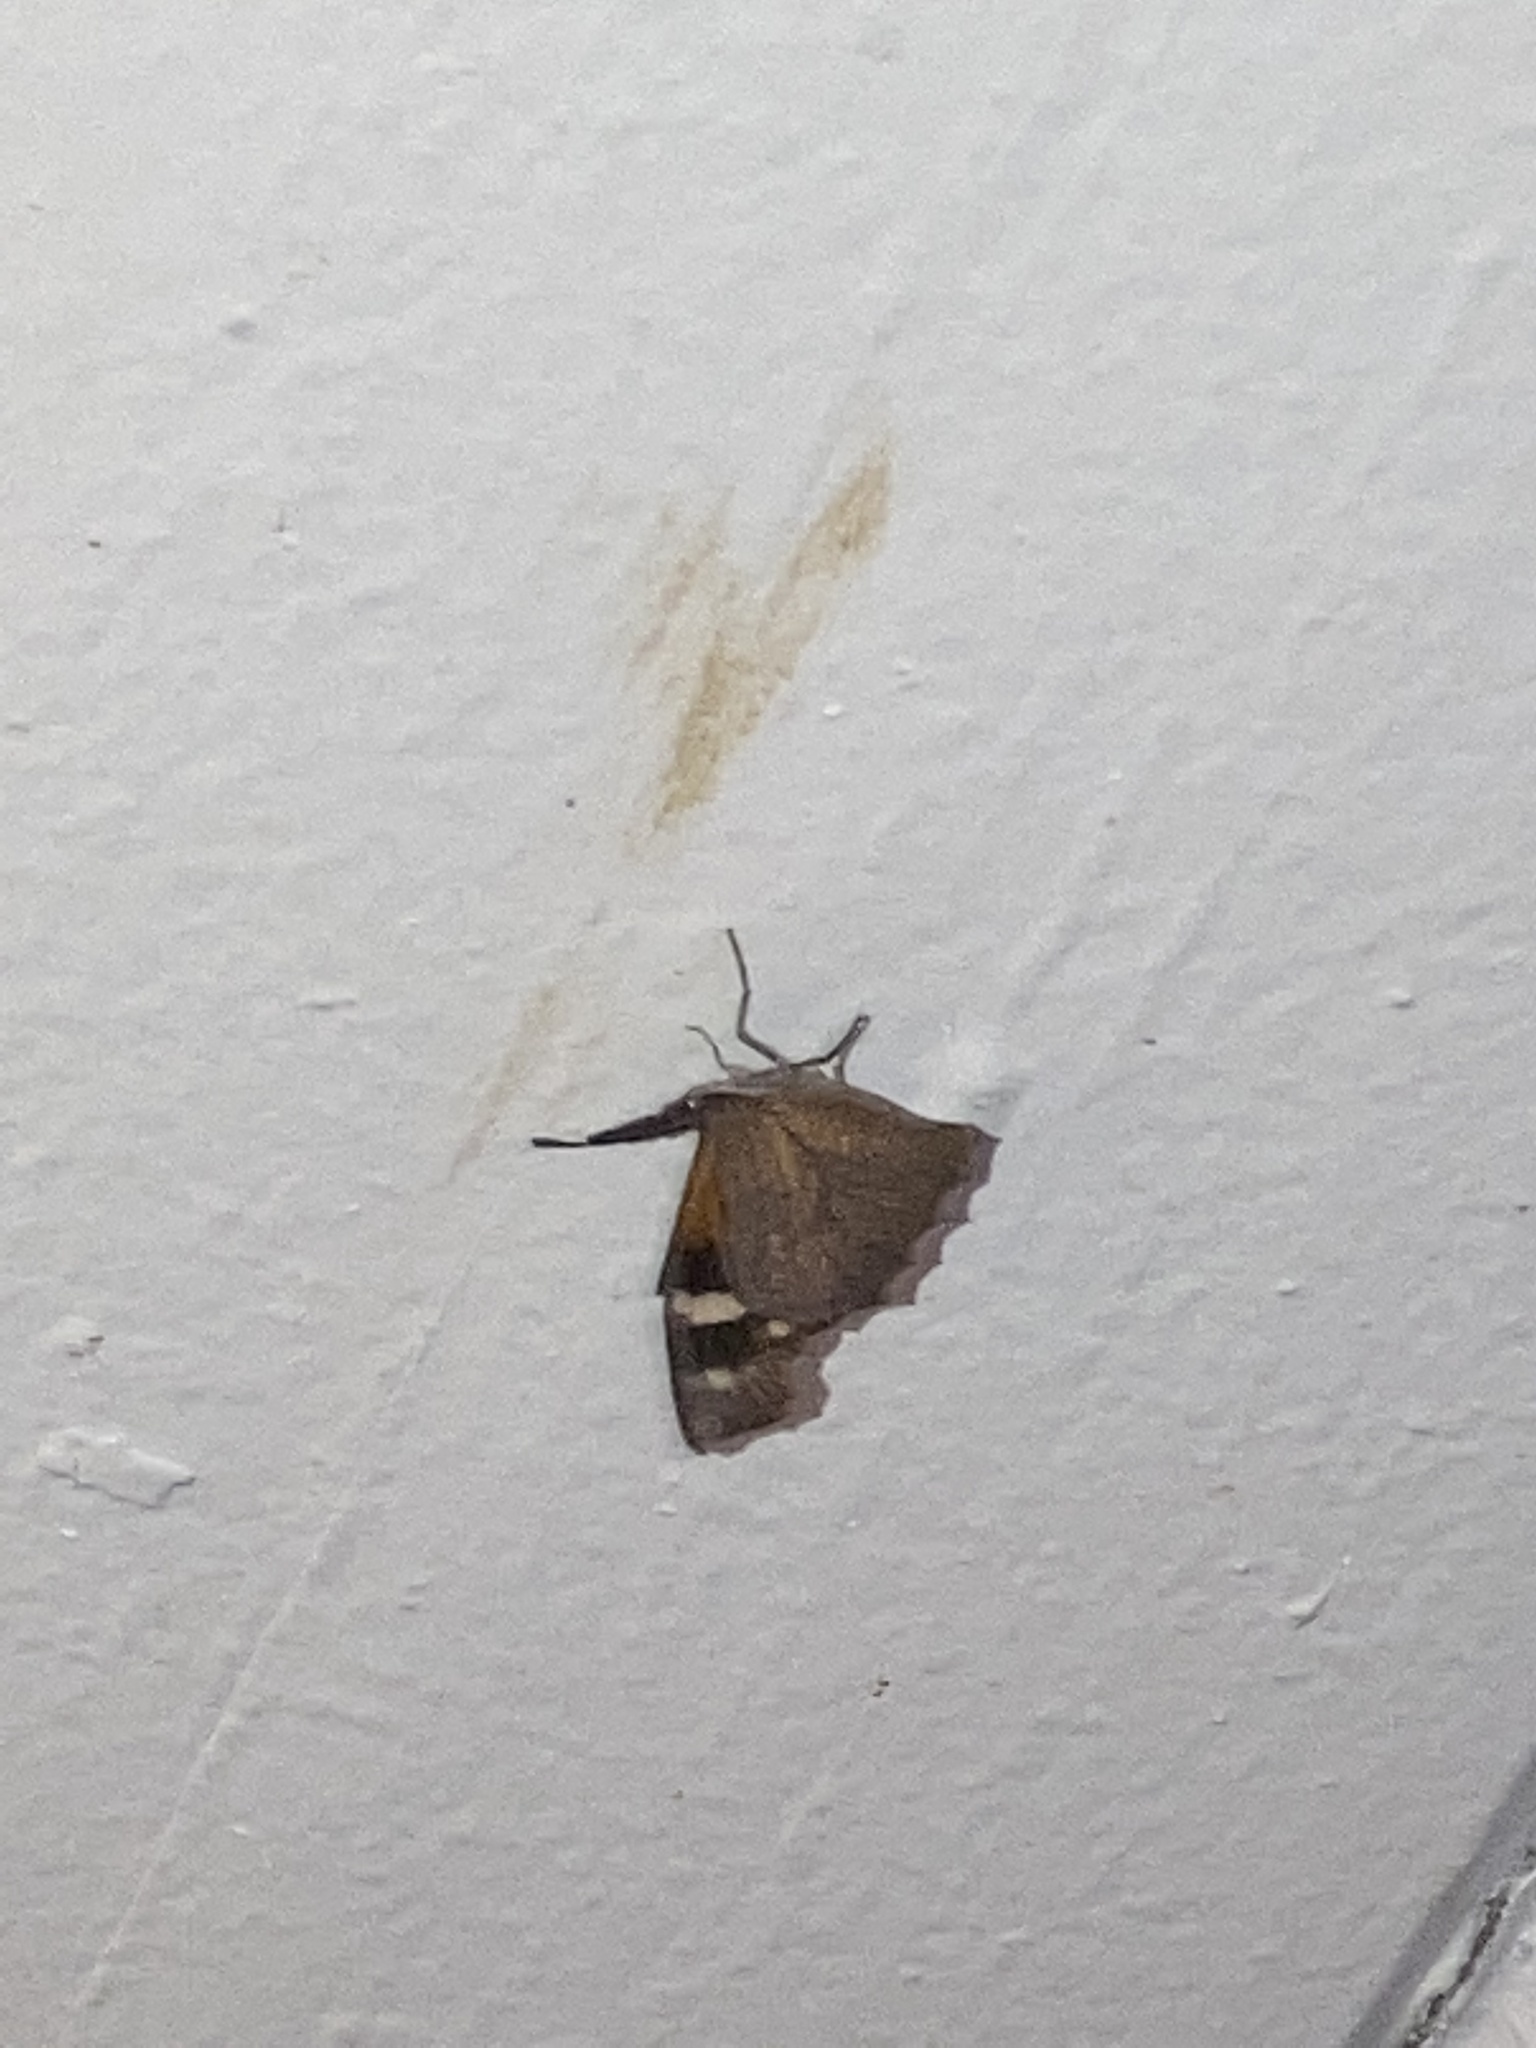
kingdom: Animalia
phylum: Arthropoda
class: Insecta
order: Lepidoptera
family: Nymphalidae
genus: Libytheana
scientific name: Libytheana carinenta
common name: American snout
